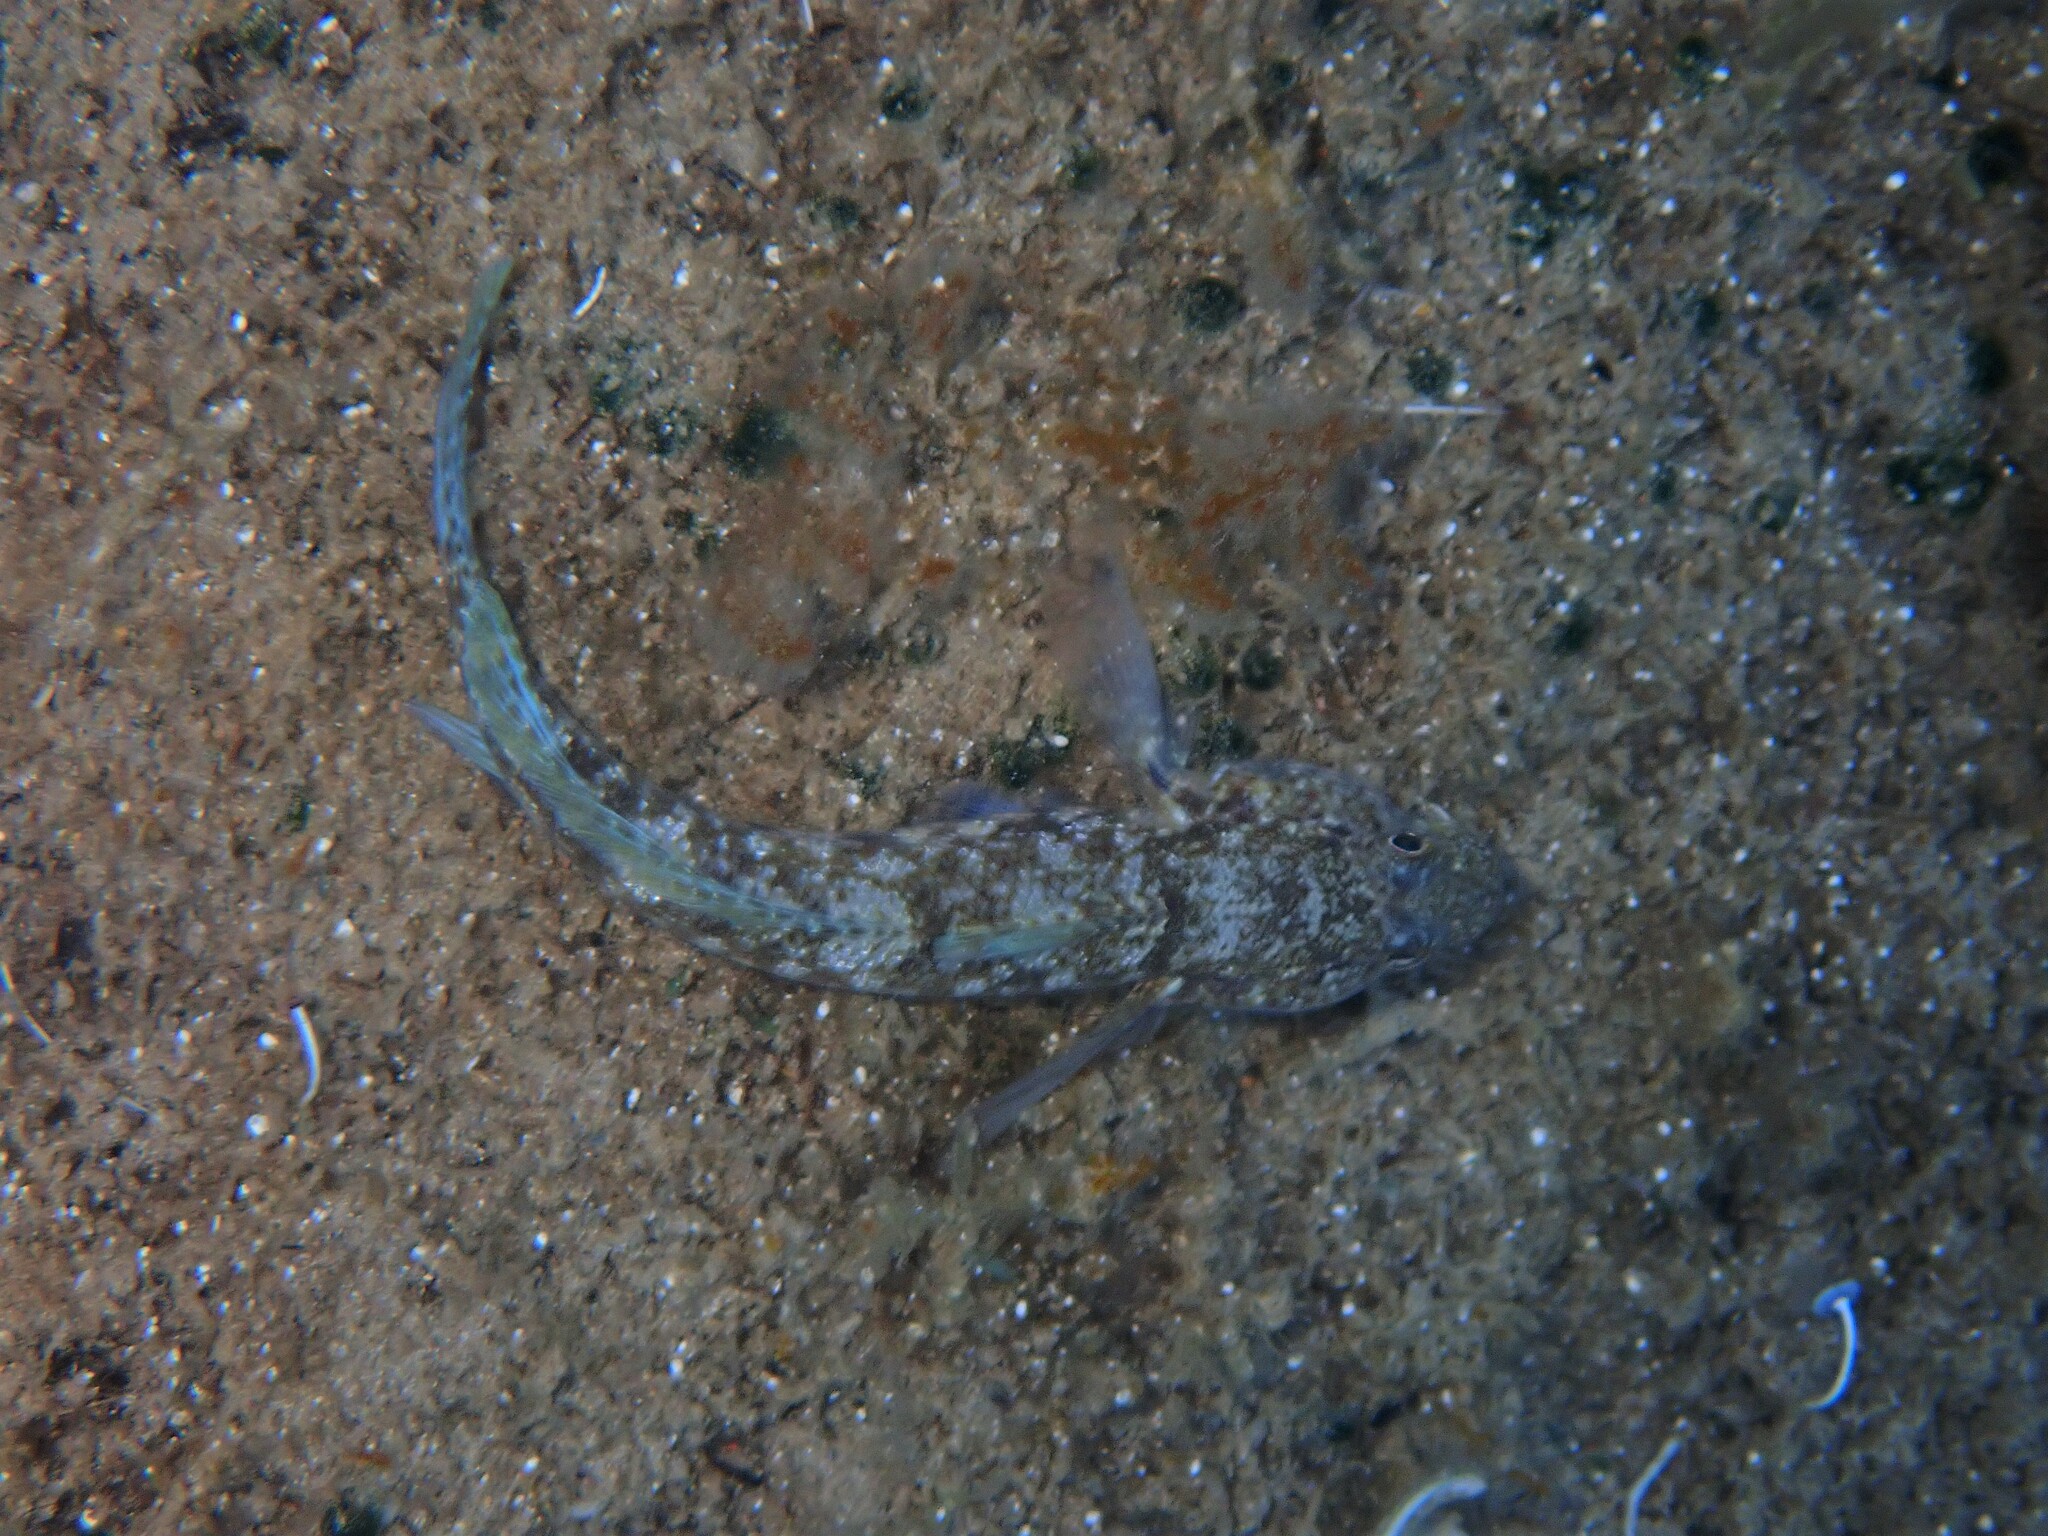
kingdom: Animalia
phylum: Chordata
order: Perciformes
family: Gobiidae
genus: Gobius
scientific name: Gobius incognitus
